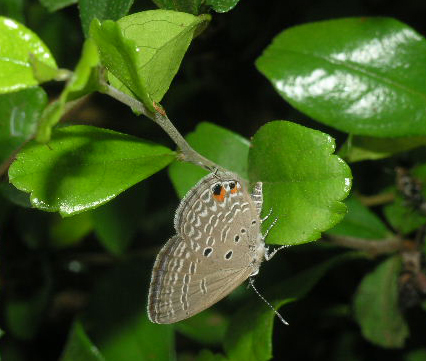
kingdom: Animalia
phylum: Arthropoda
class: Insecta
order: Lepidoptera
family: Lycaenidae
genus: Luthrodes
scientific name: Luthrodes pandava
